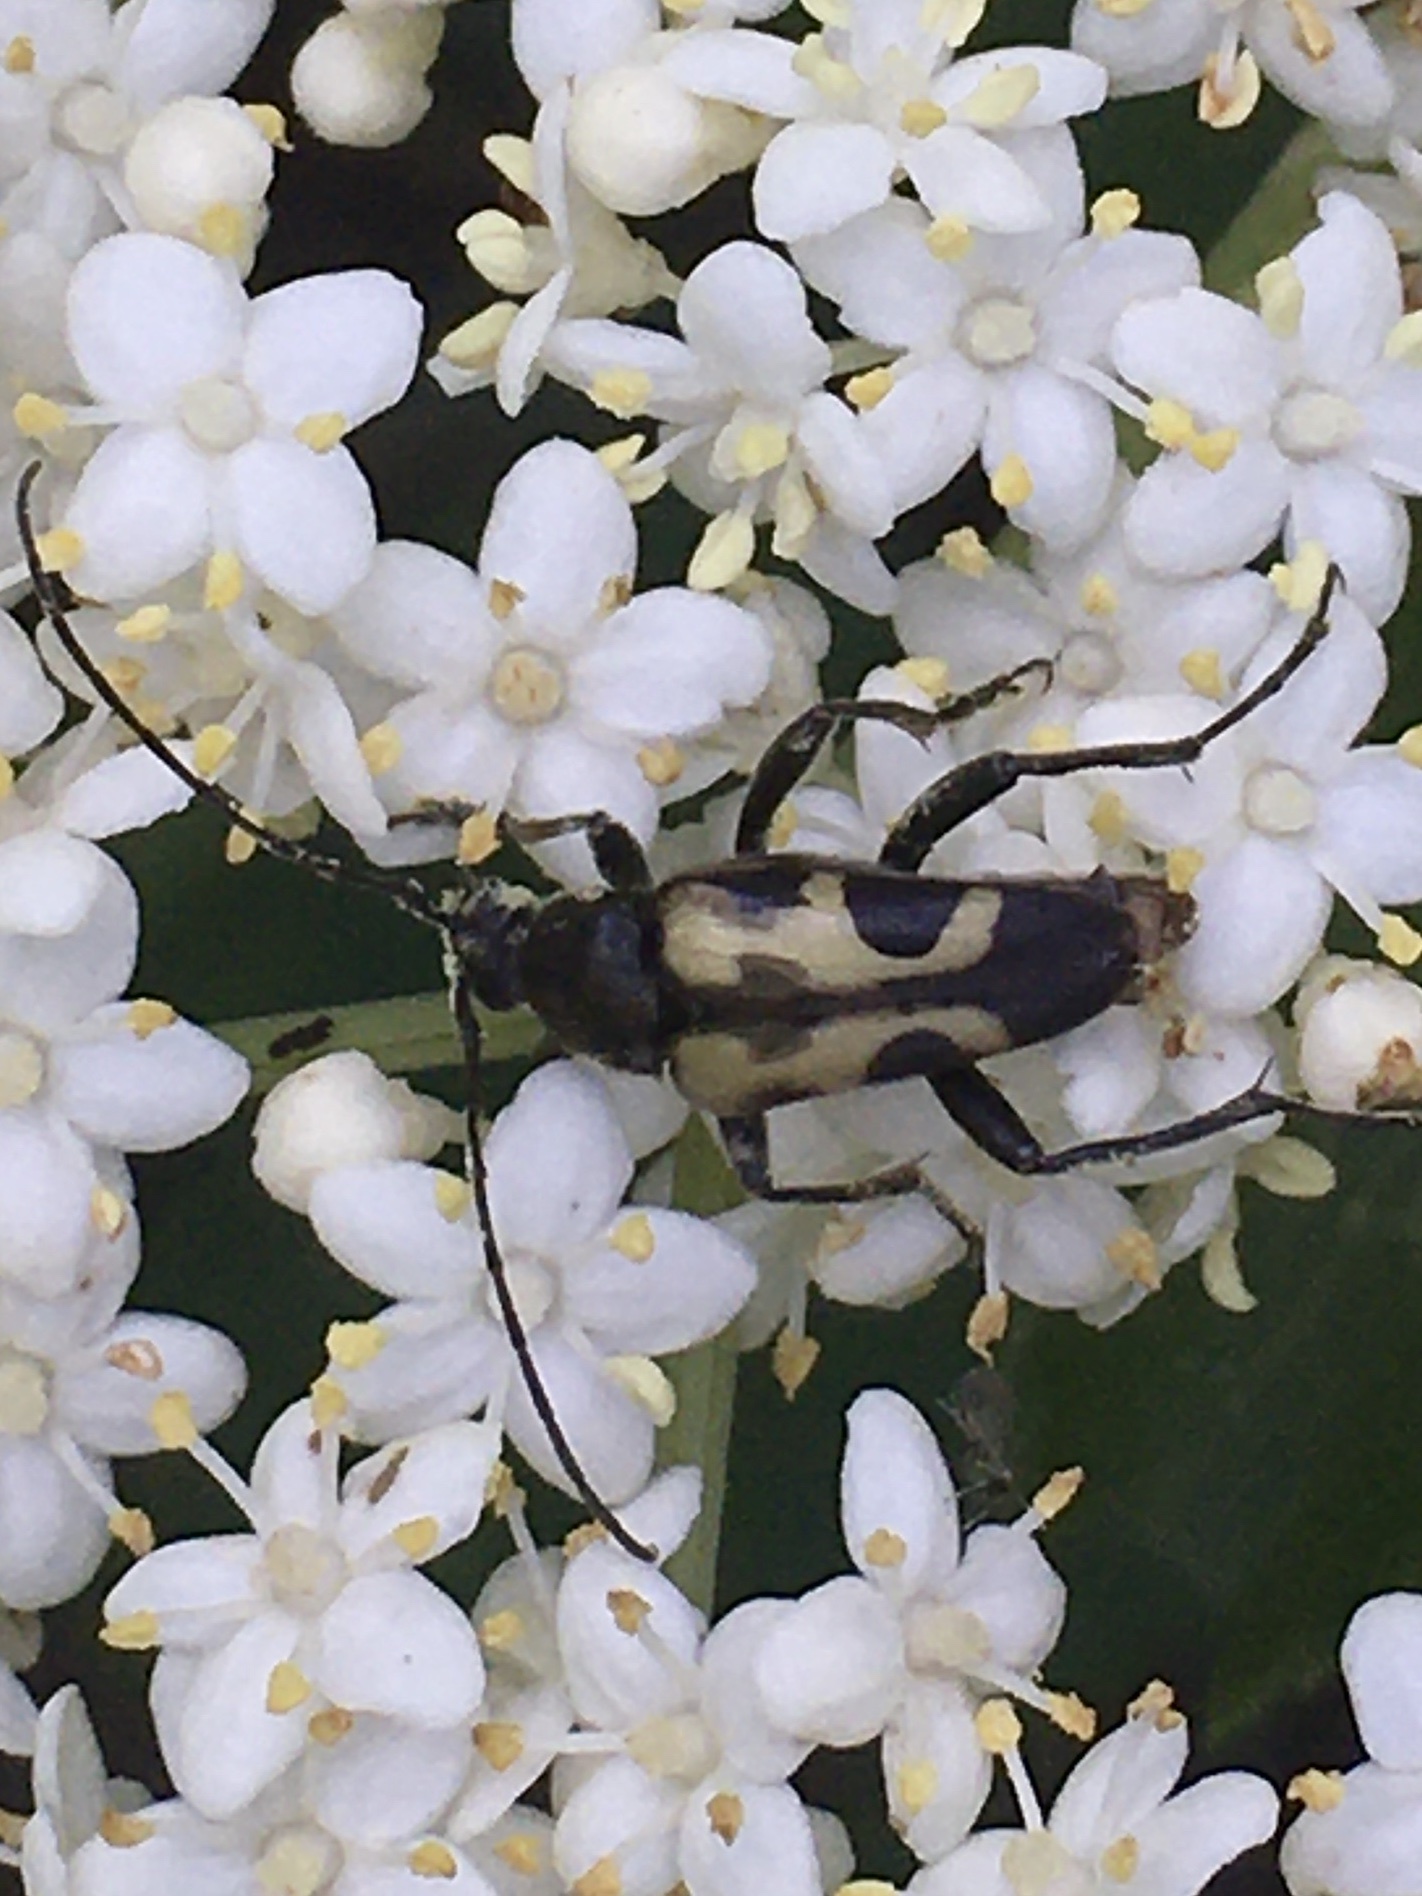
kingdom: Animalia
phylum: Arthropoda
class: Insecta
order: Coleoptera
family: Cerambycidae
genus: Judolia
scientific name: Judolia cordifera
